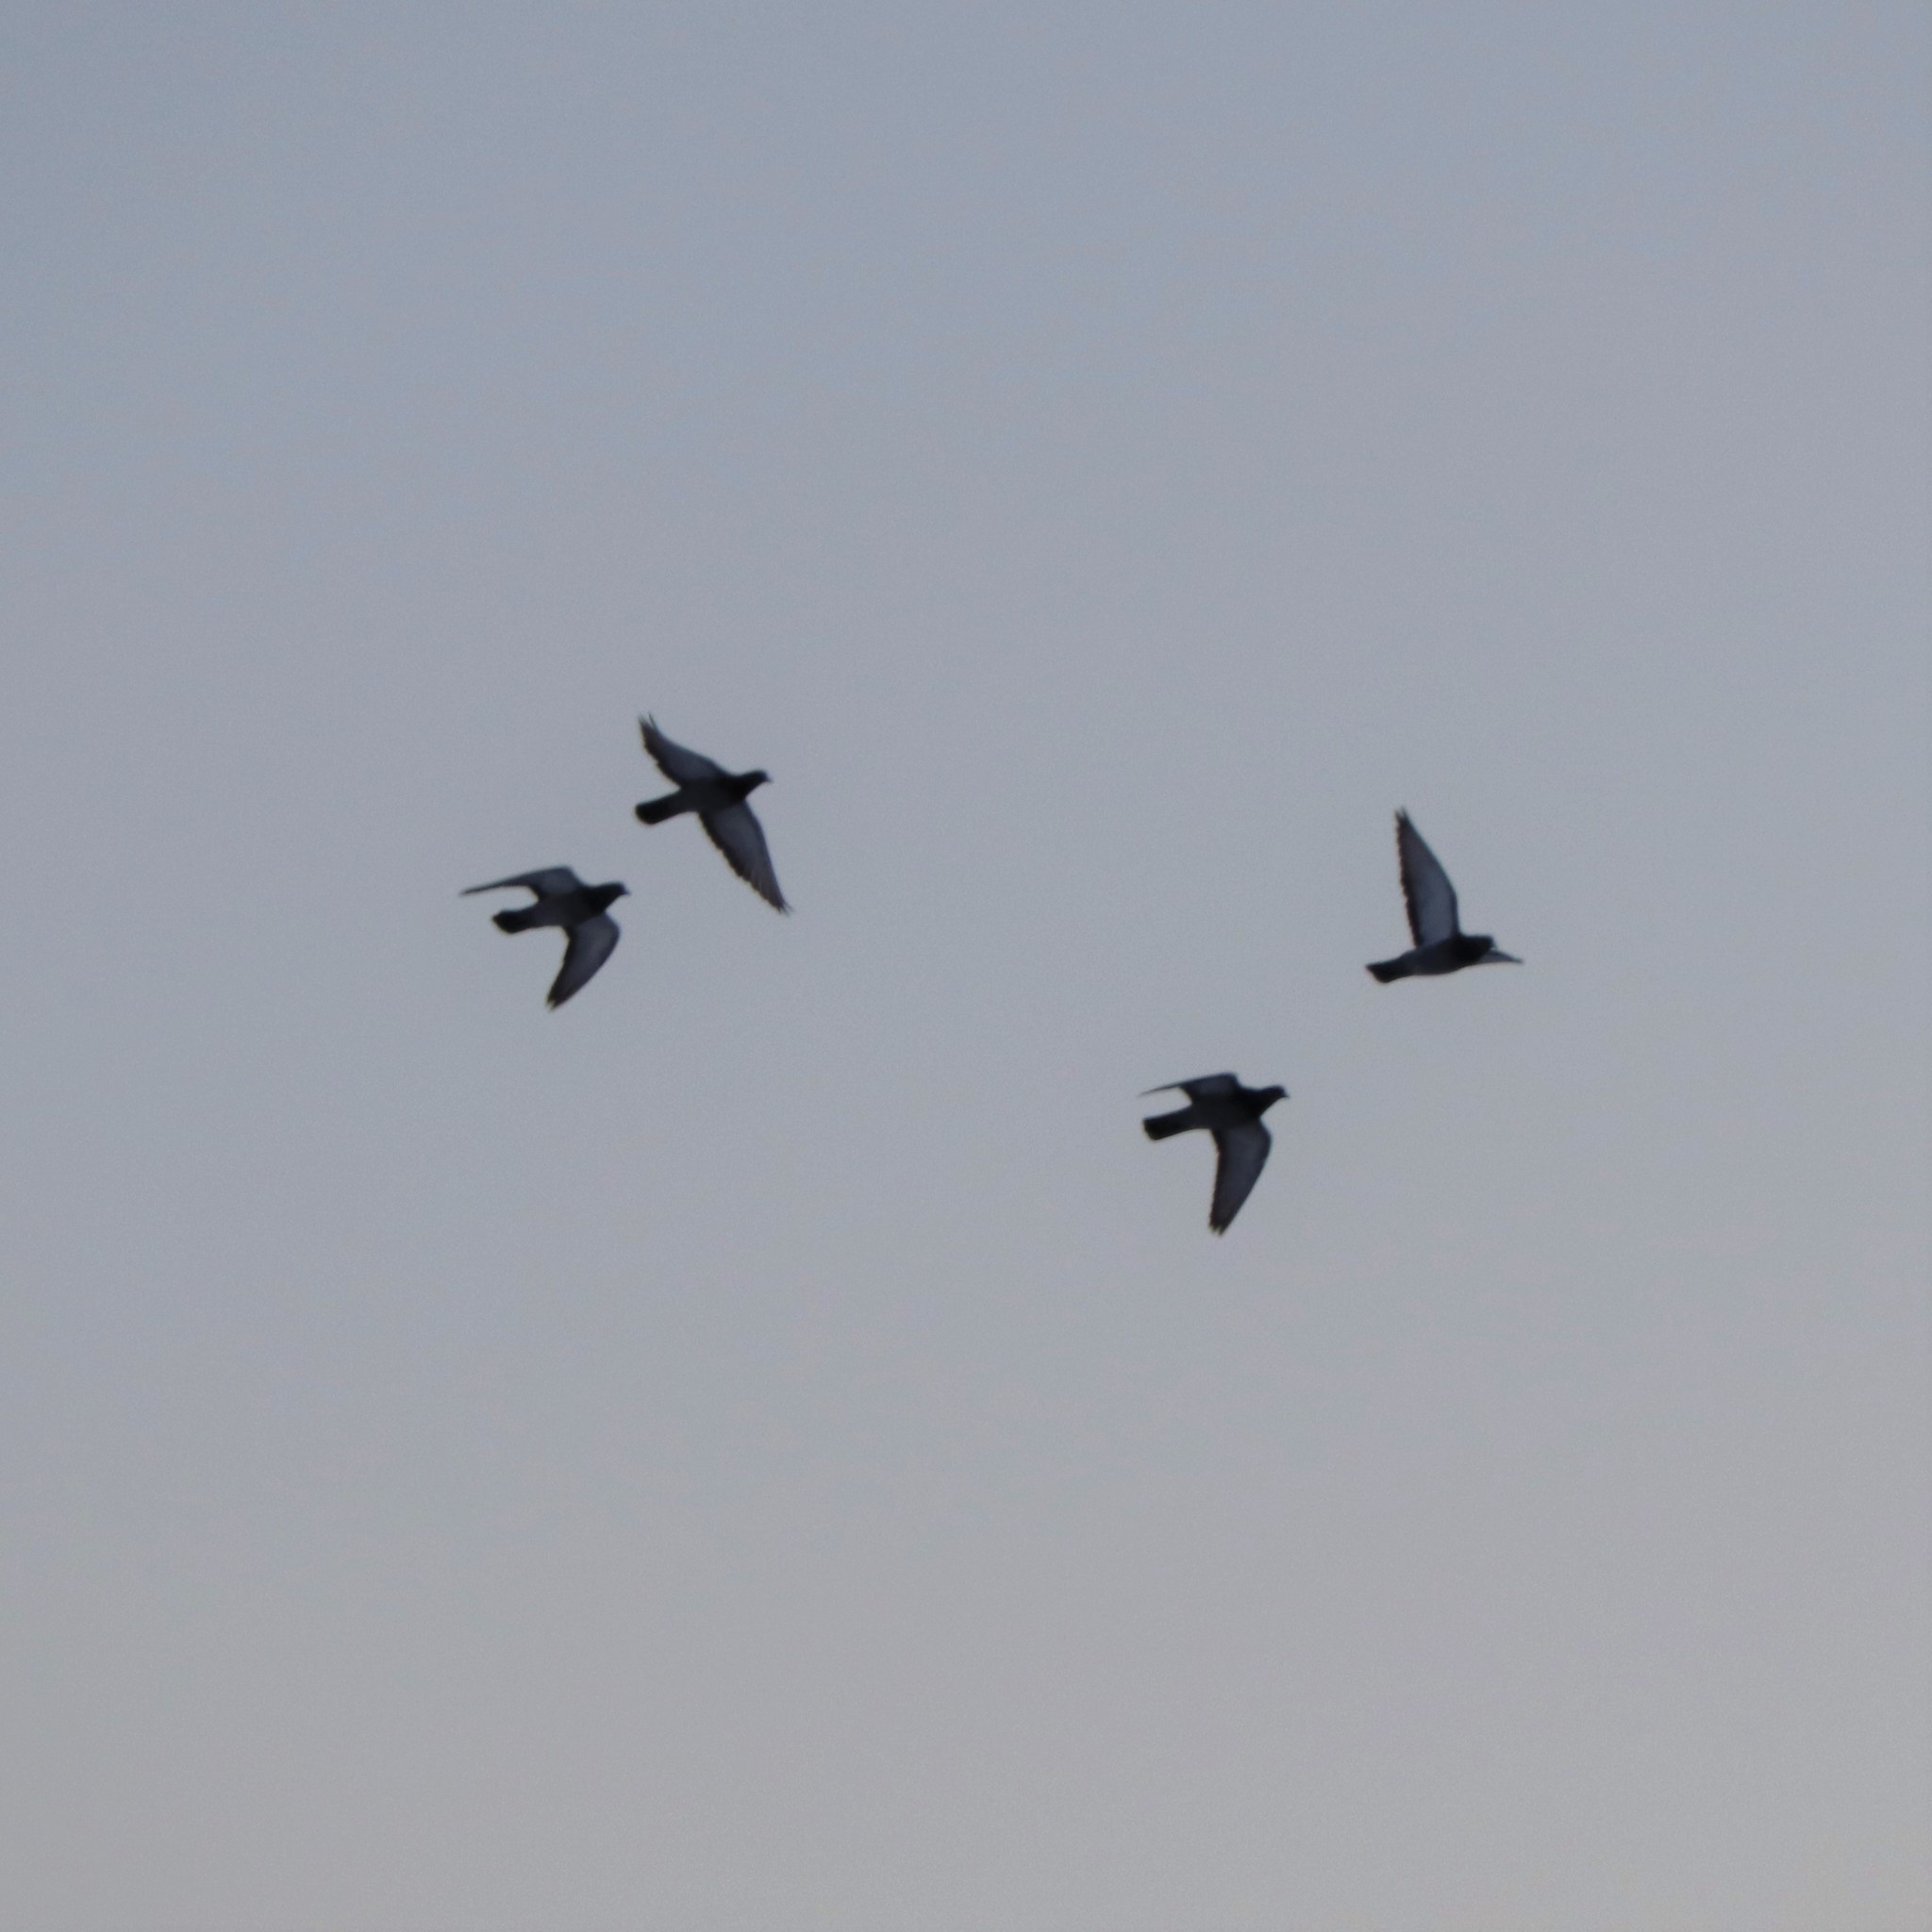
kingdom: Animalia
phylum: Chordata
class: Aves
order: Columbiformes
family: Columbidae
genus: Columba
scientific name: Columba livia
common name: Rock pigeon
